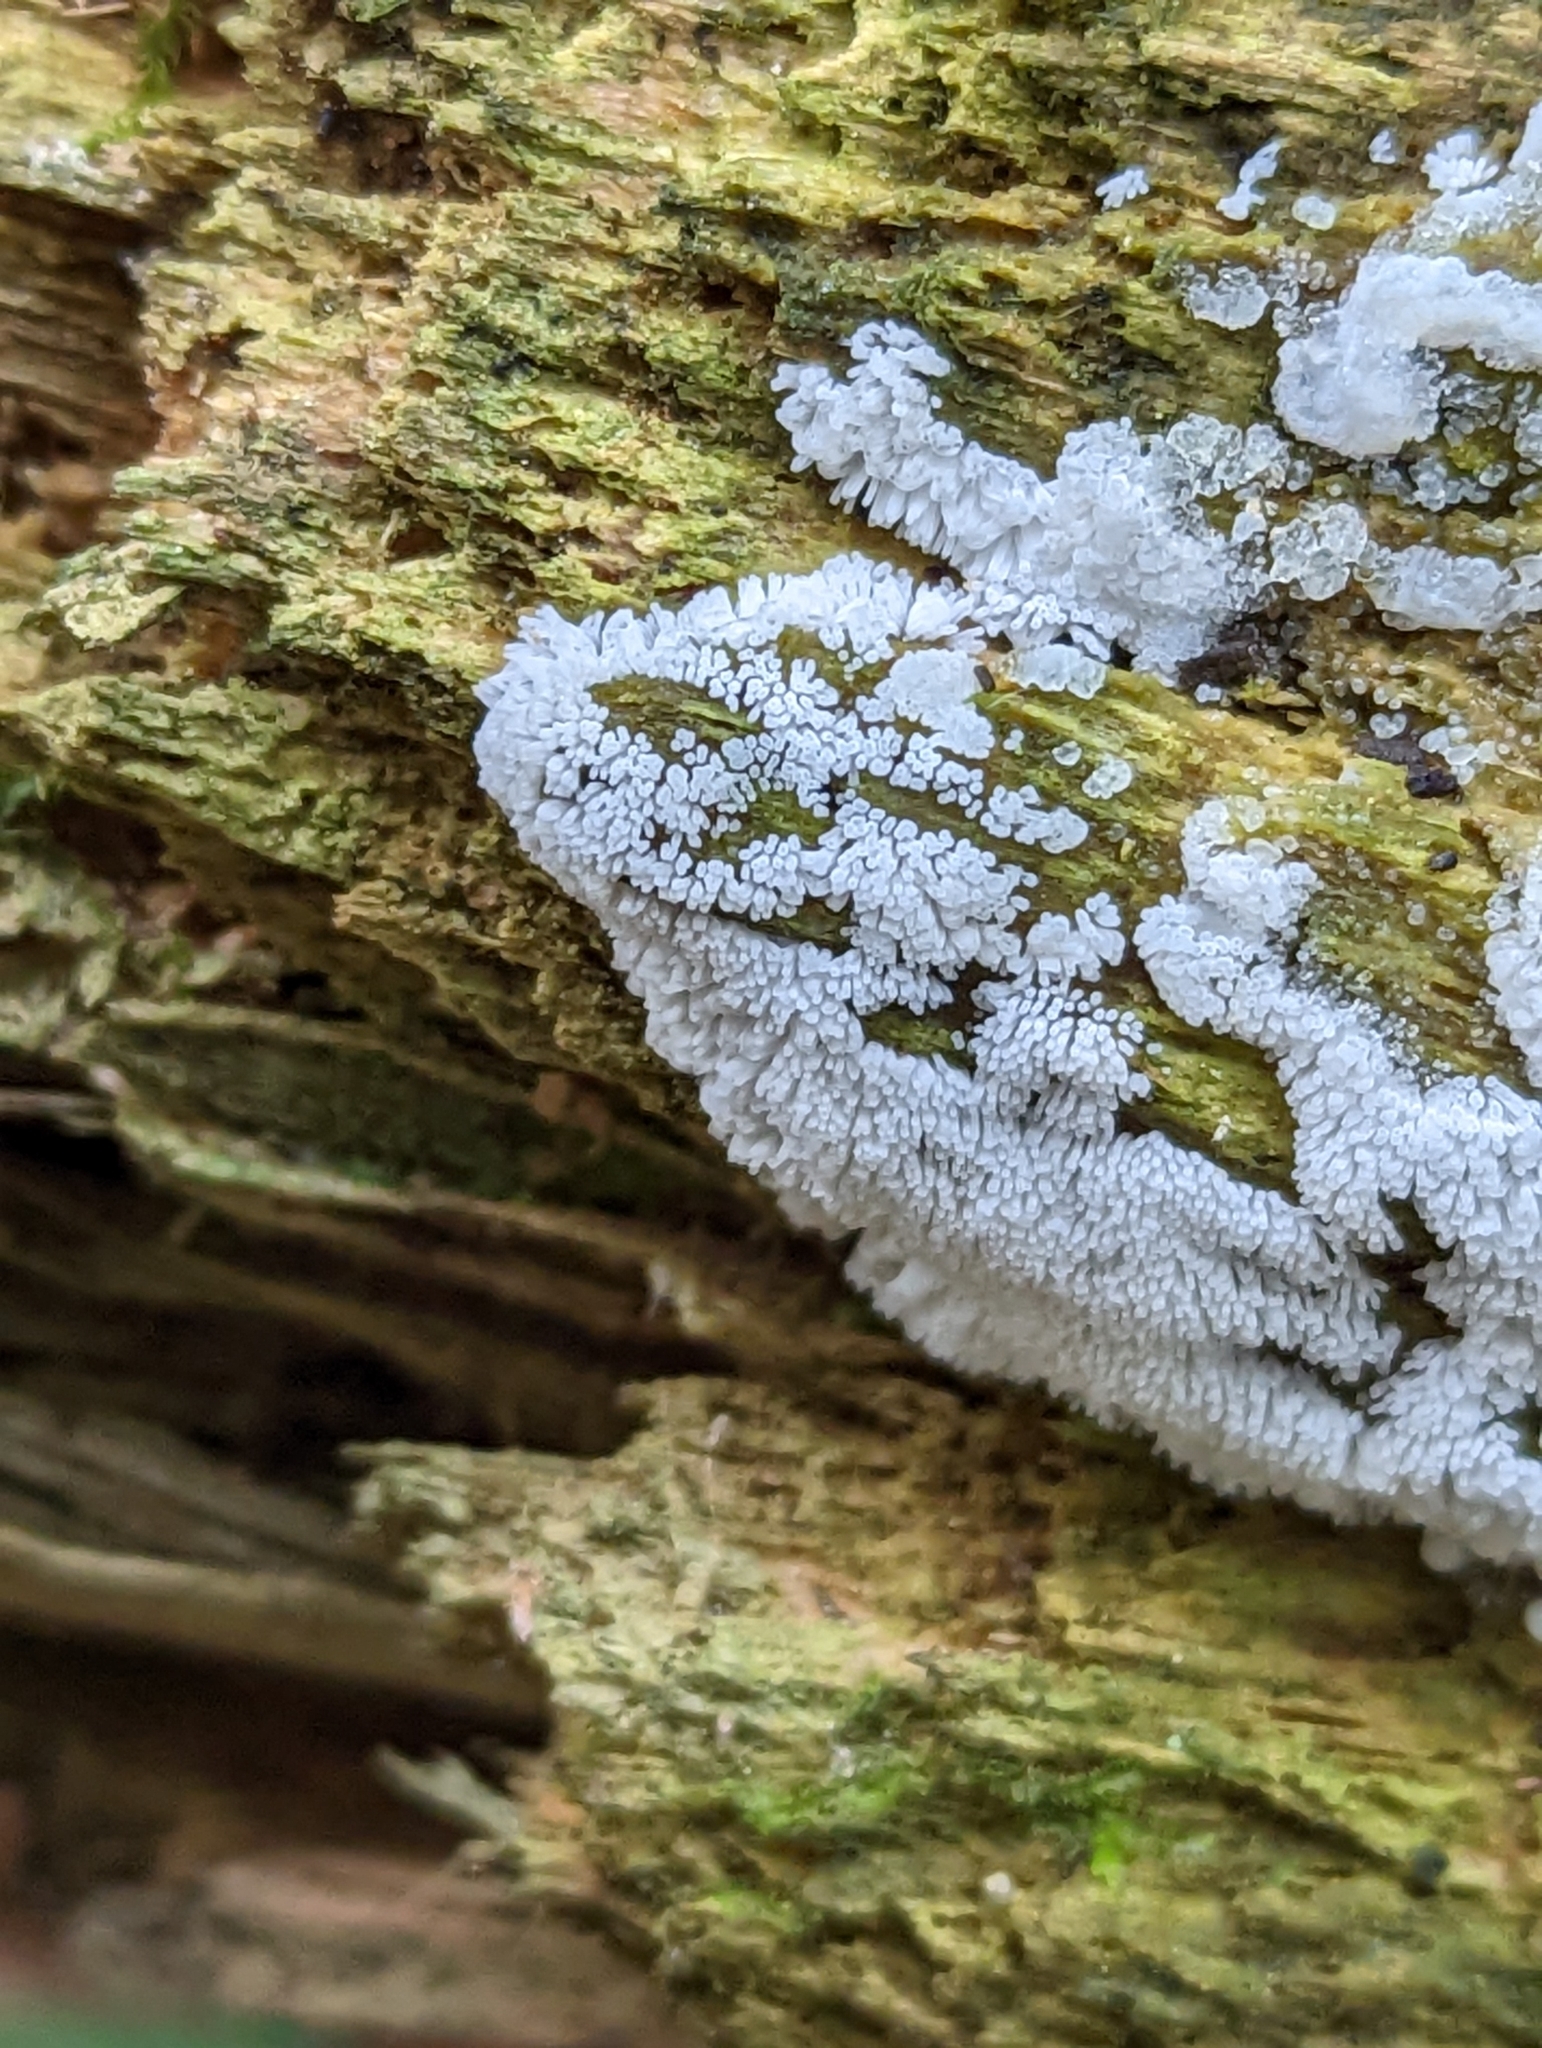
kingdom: Protozoa
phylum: Mycetozoa
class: Protosteliomycetes
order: Ceratiomyxales
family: Ceratiomyxaceae
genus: Ceratiomyxa
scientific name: Ceratiomyxa fruticulosa
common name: Honeycomb coral slime mold
